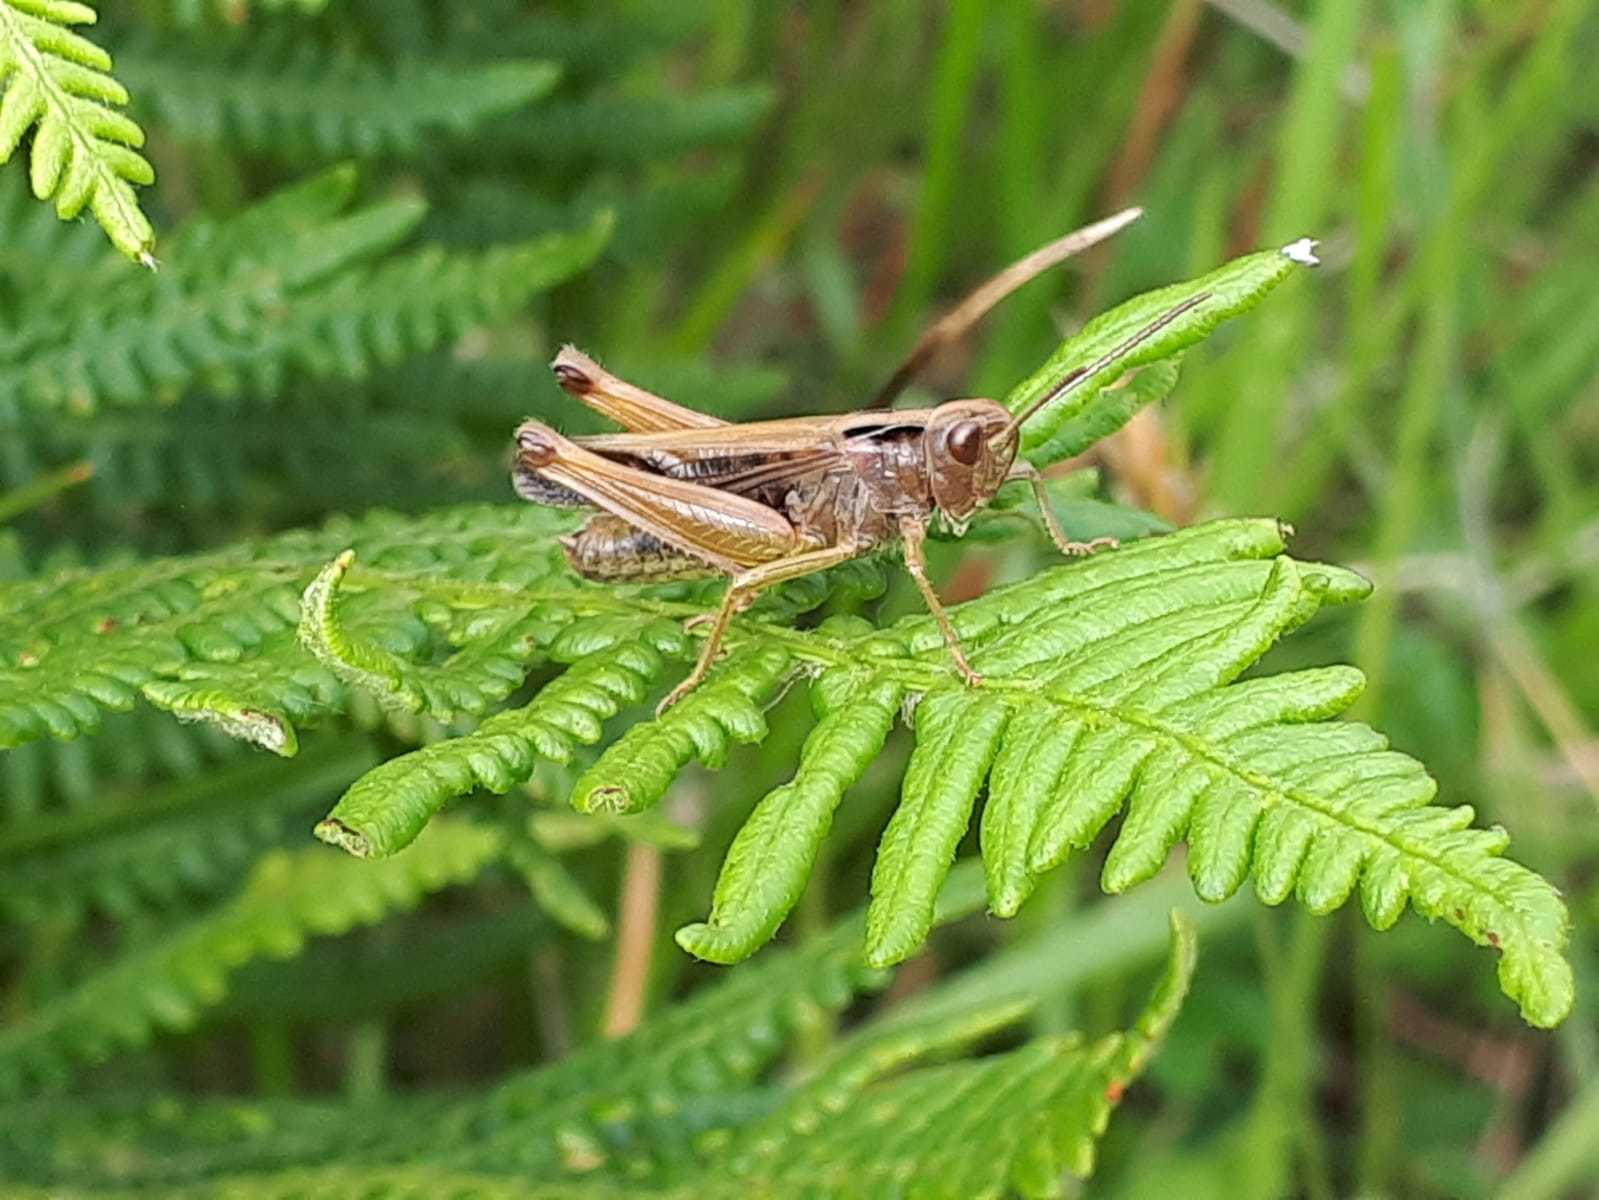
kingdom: Animalia
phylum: Arthropoda
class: Insecta
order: Orthoptera
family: Acrididae
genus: Omocestus
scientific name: Omocestus viridulus
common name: Common green grasshopper
